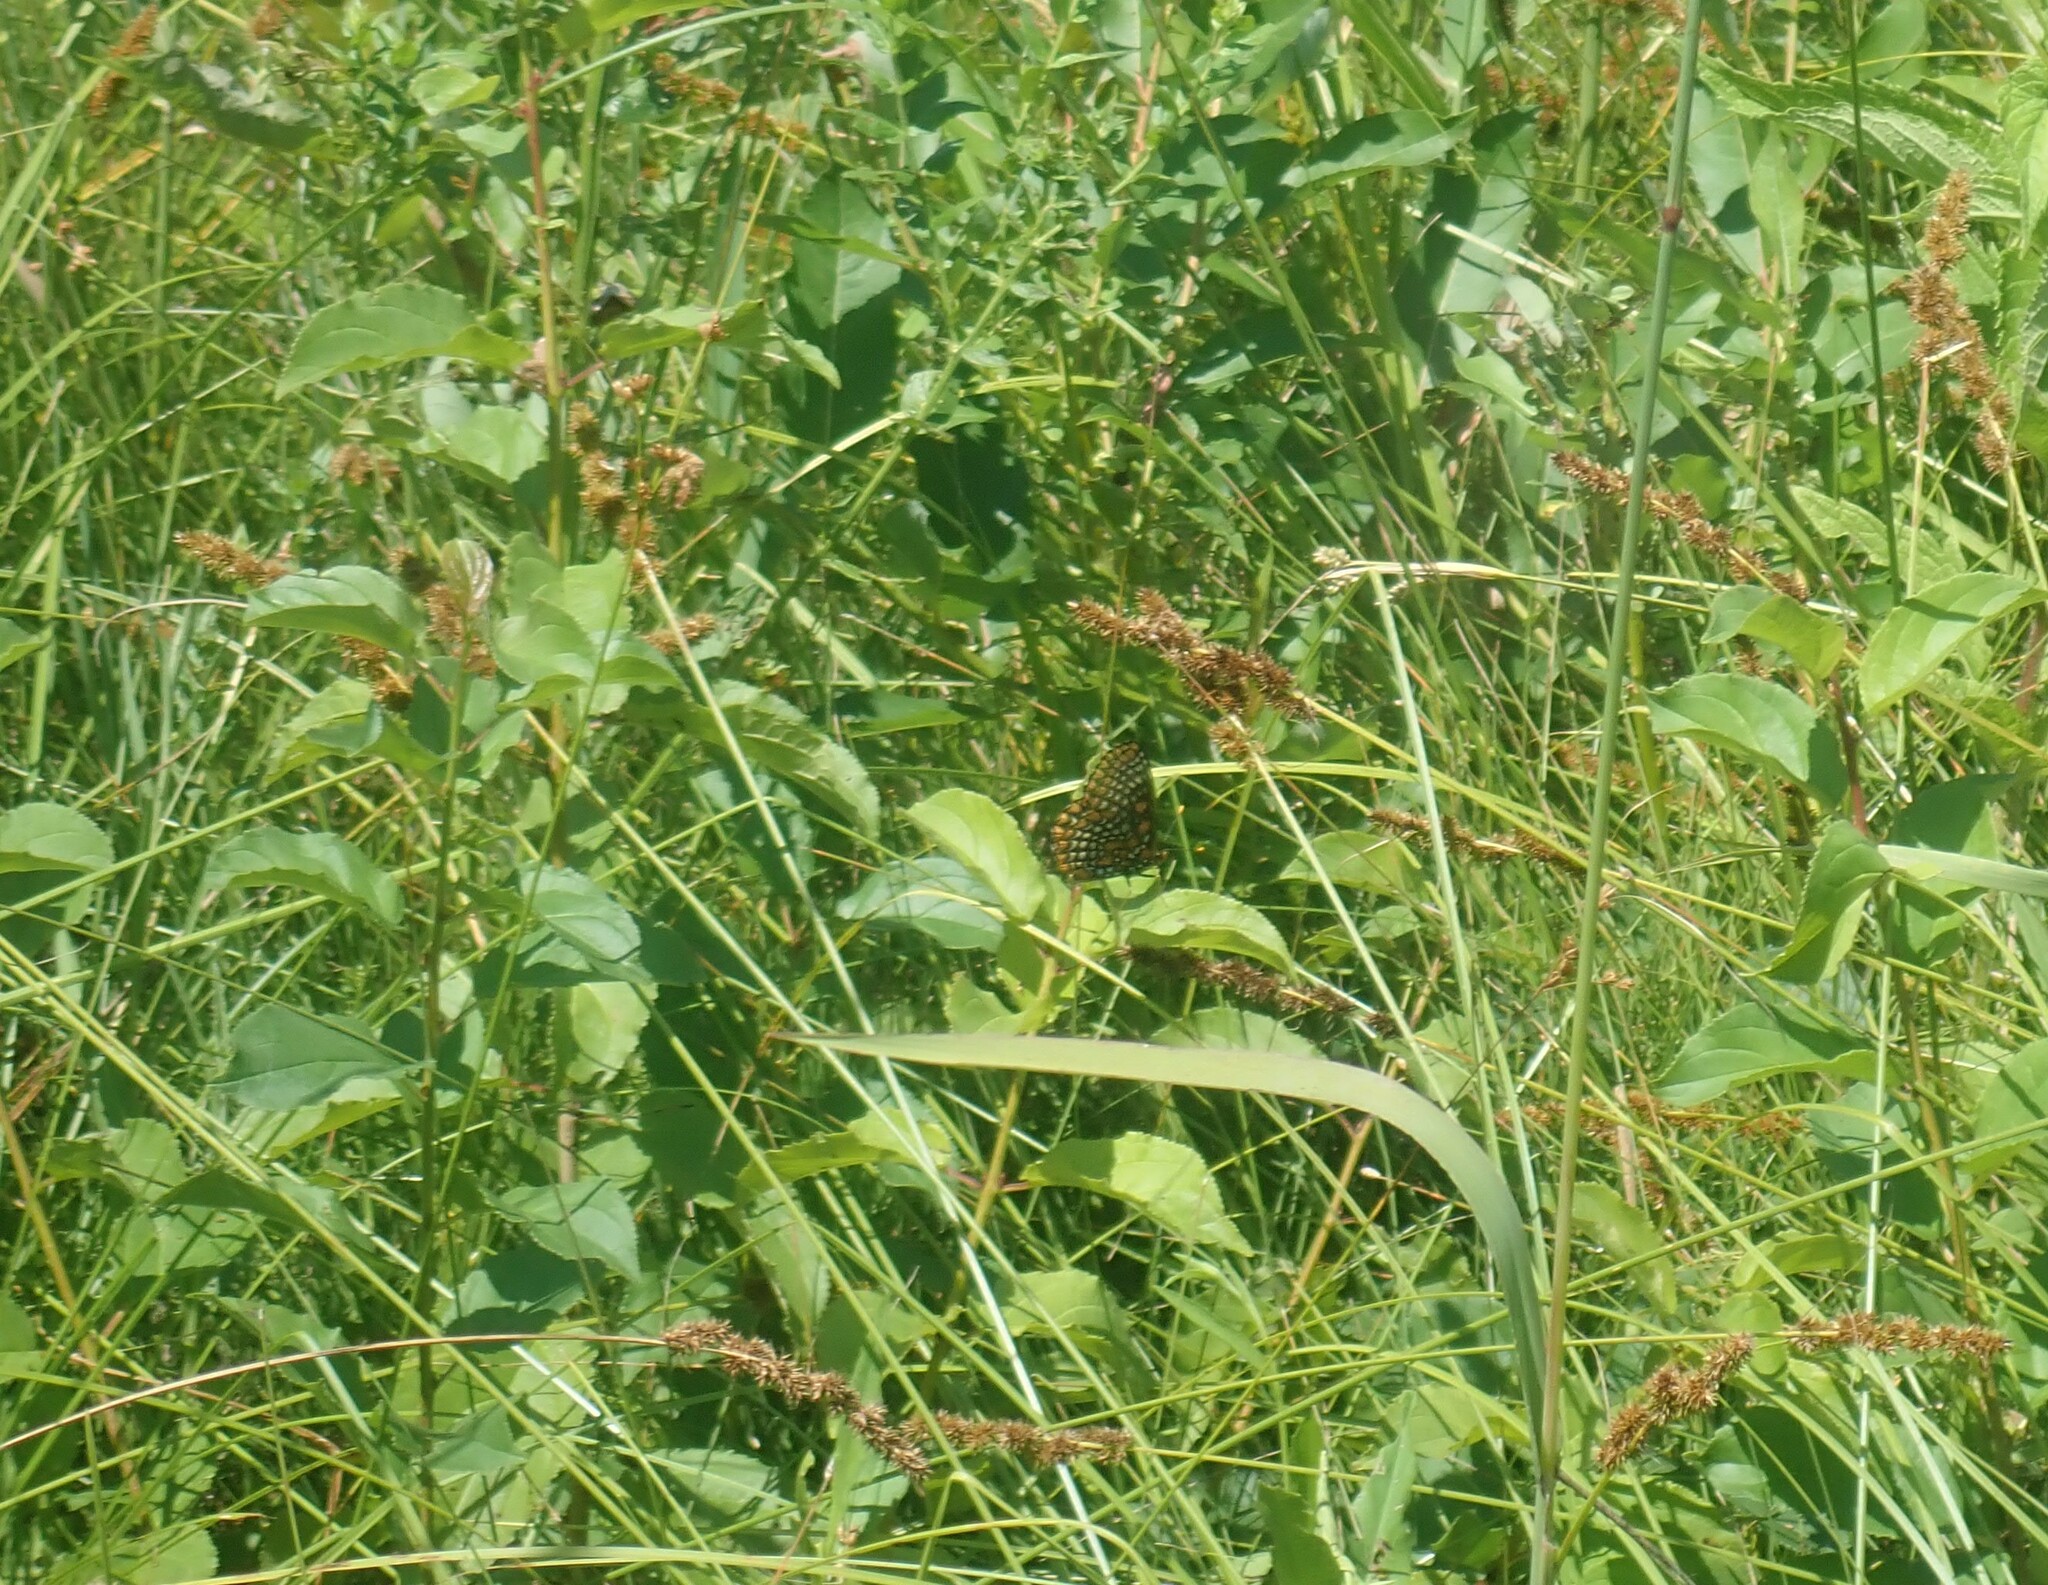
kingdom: Animalia
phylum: Arthropoda
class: Insecta
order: Lepidoptera
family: Nymphalidae
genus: Euphydryas
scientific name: Euphydryas phaeton
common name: Baltimore checkerspot
